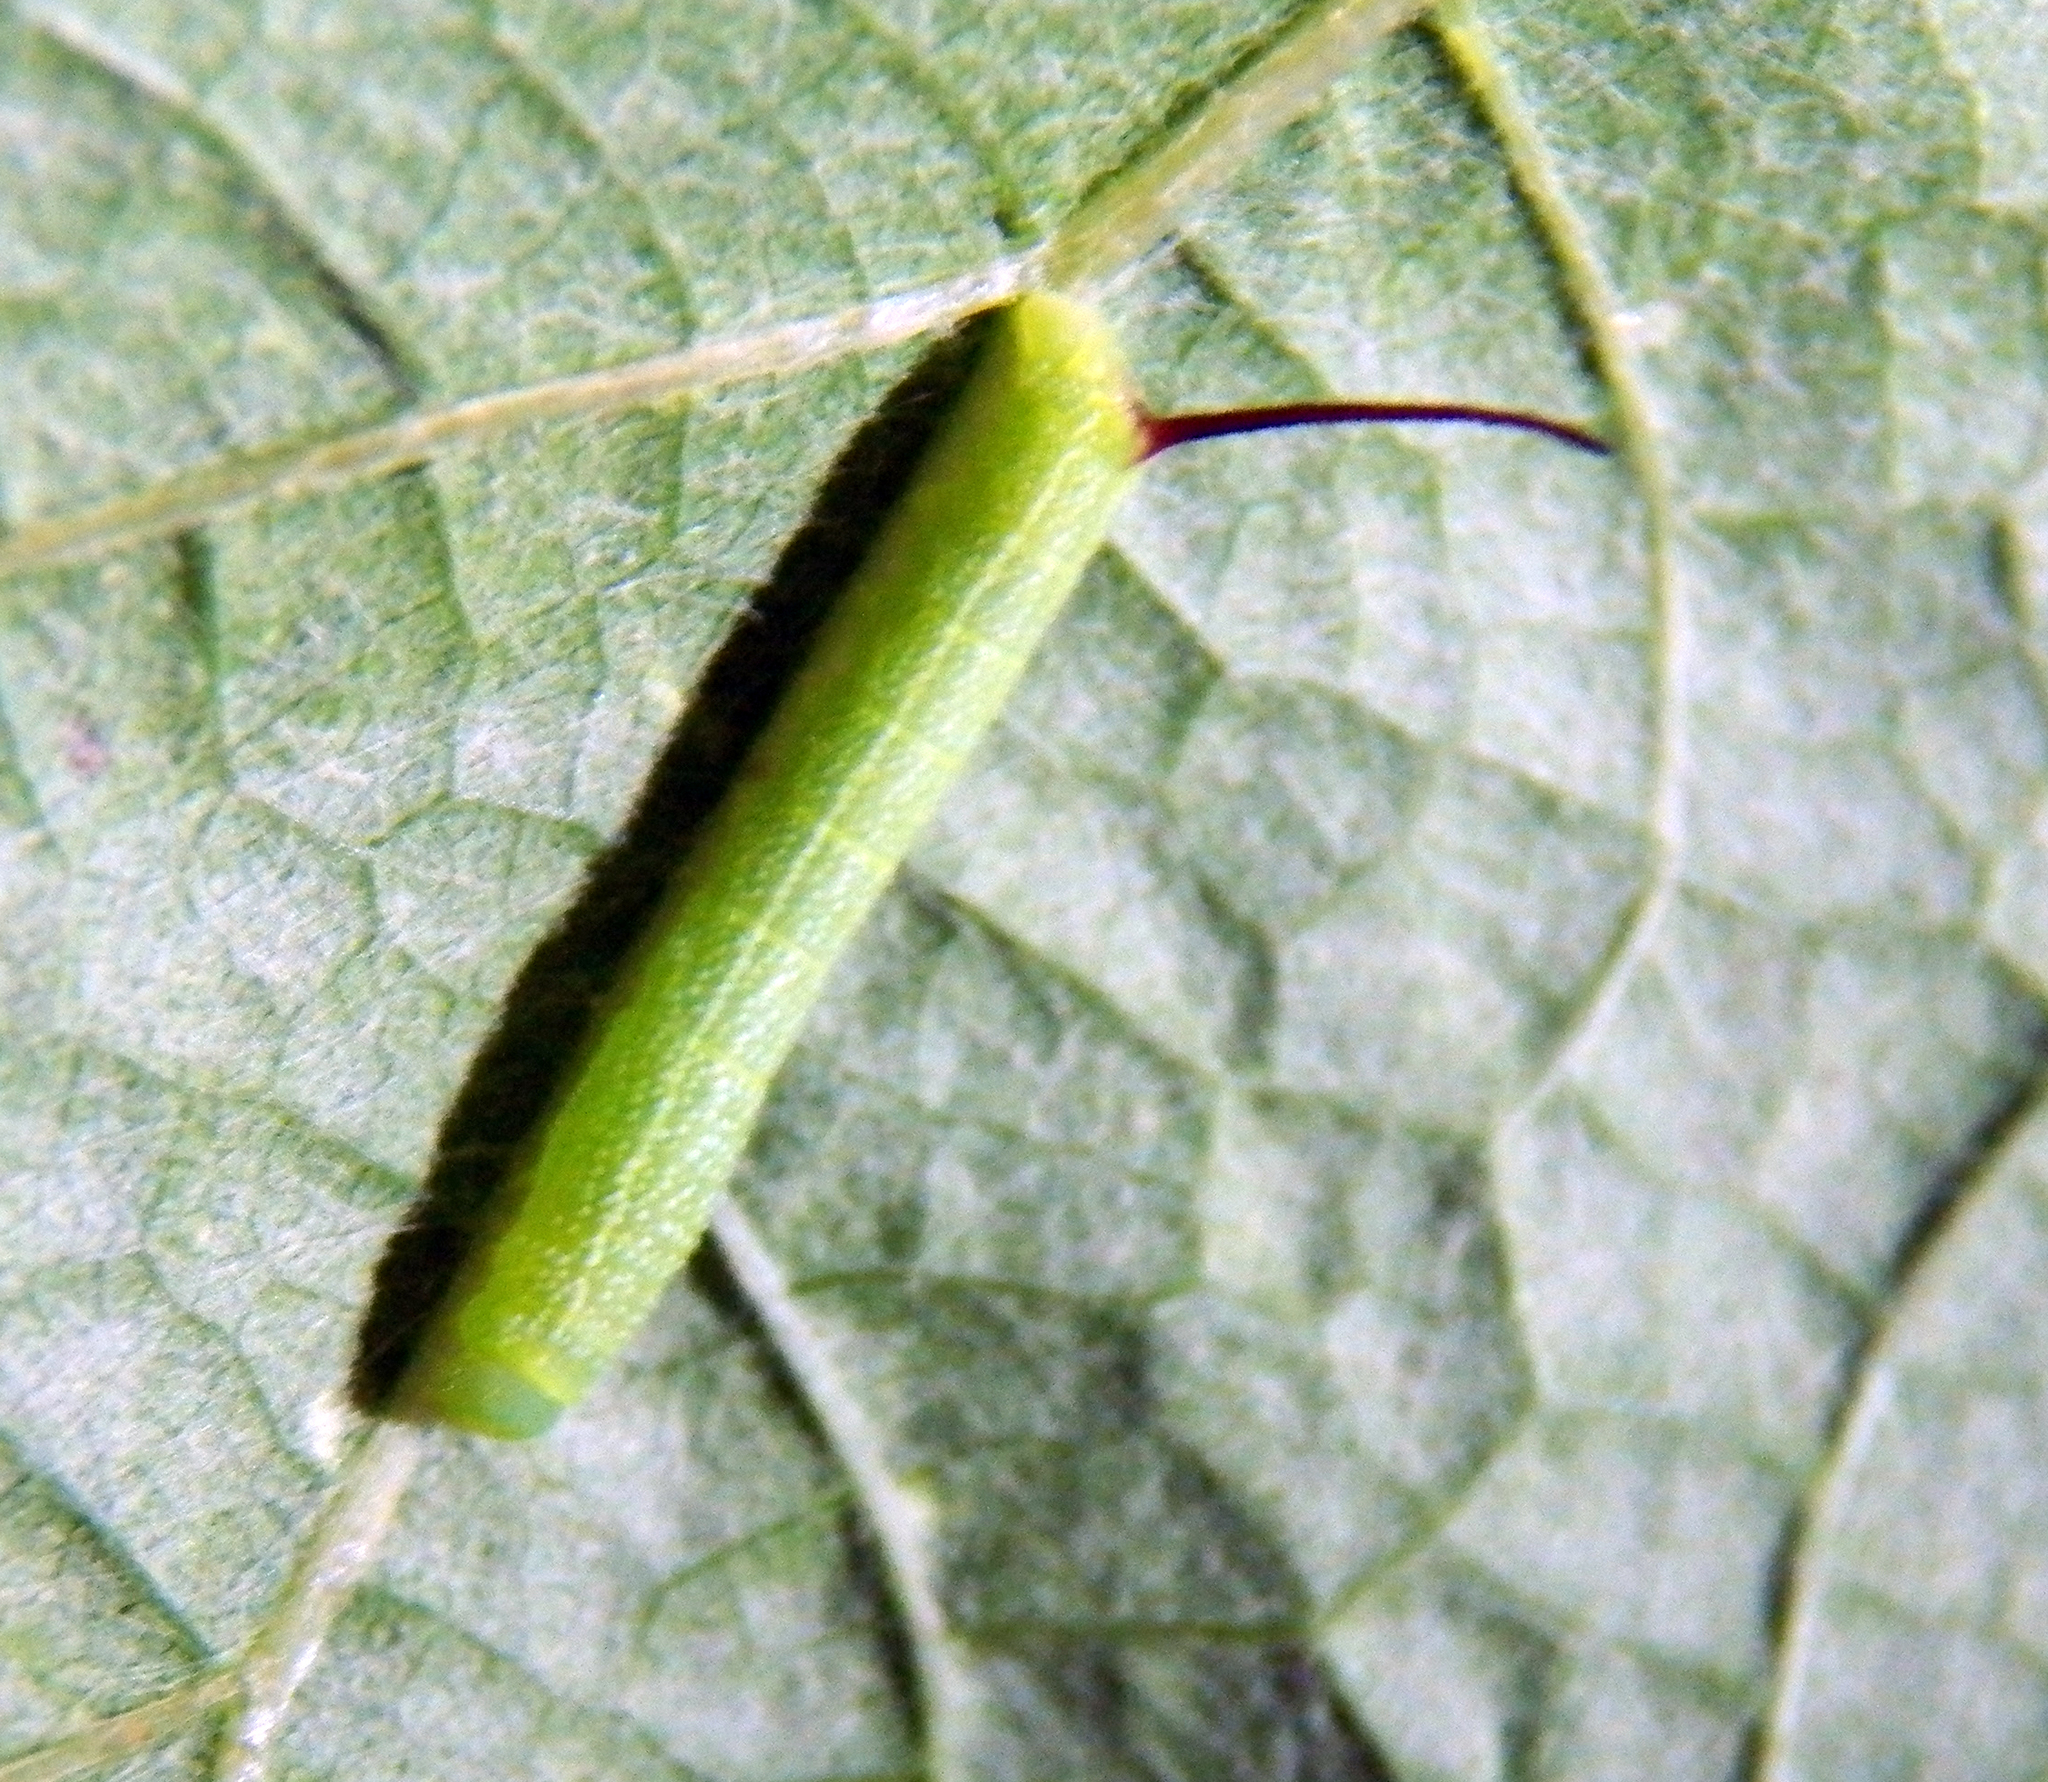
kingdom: Animalia
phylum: Arthropoda
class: Insecta
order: Lepidoptera
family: Sphingidae
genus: Eumorpha
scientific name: Eumorpha achemon
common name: Achemon sphinx
